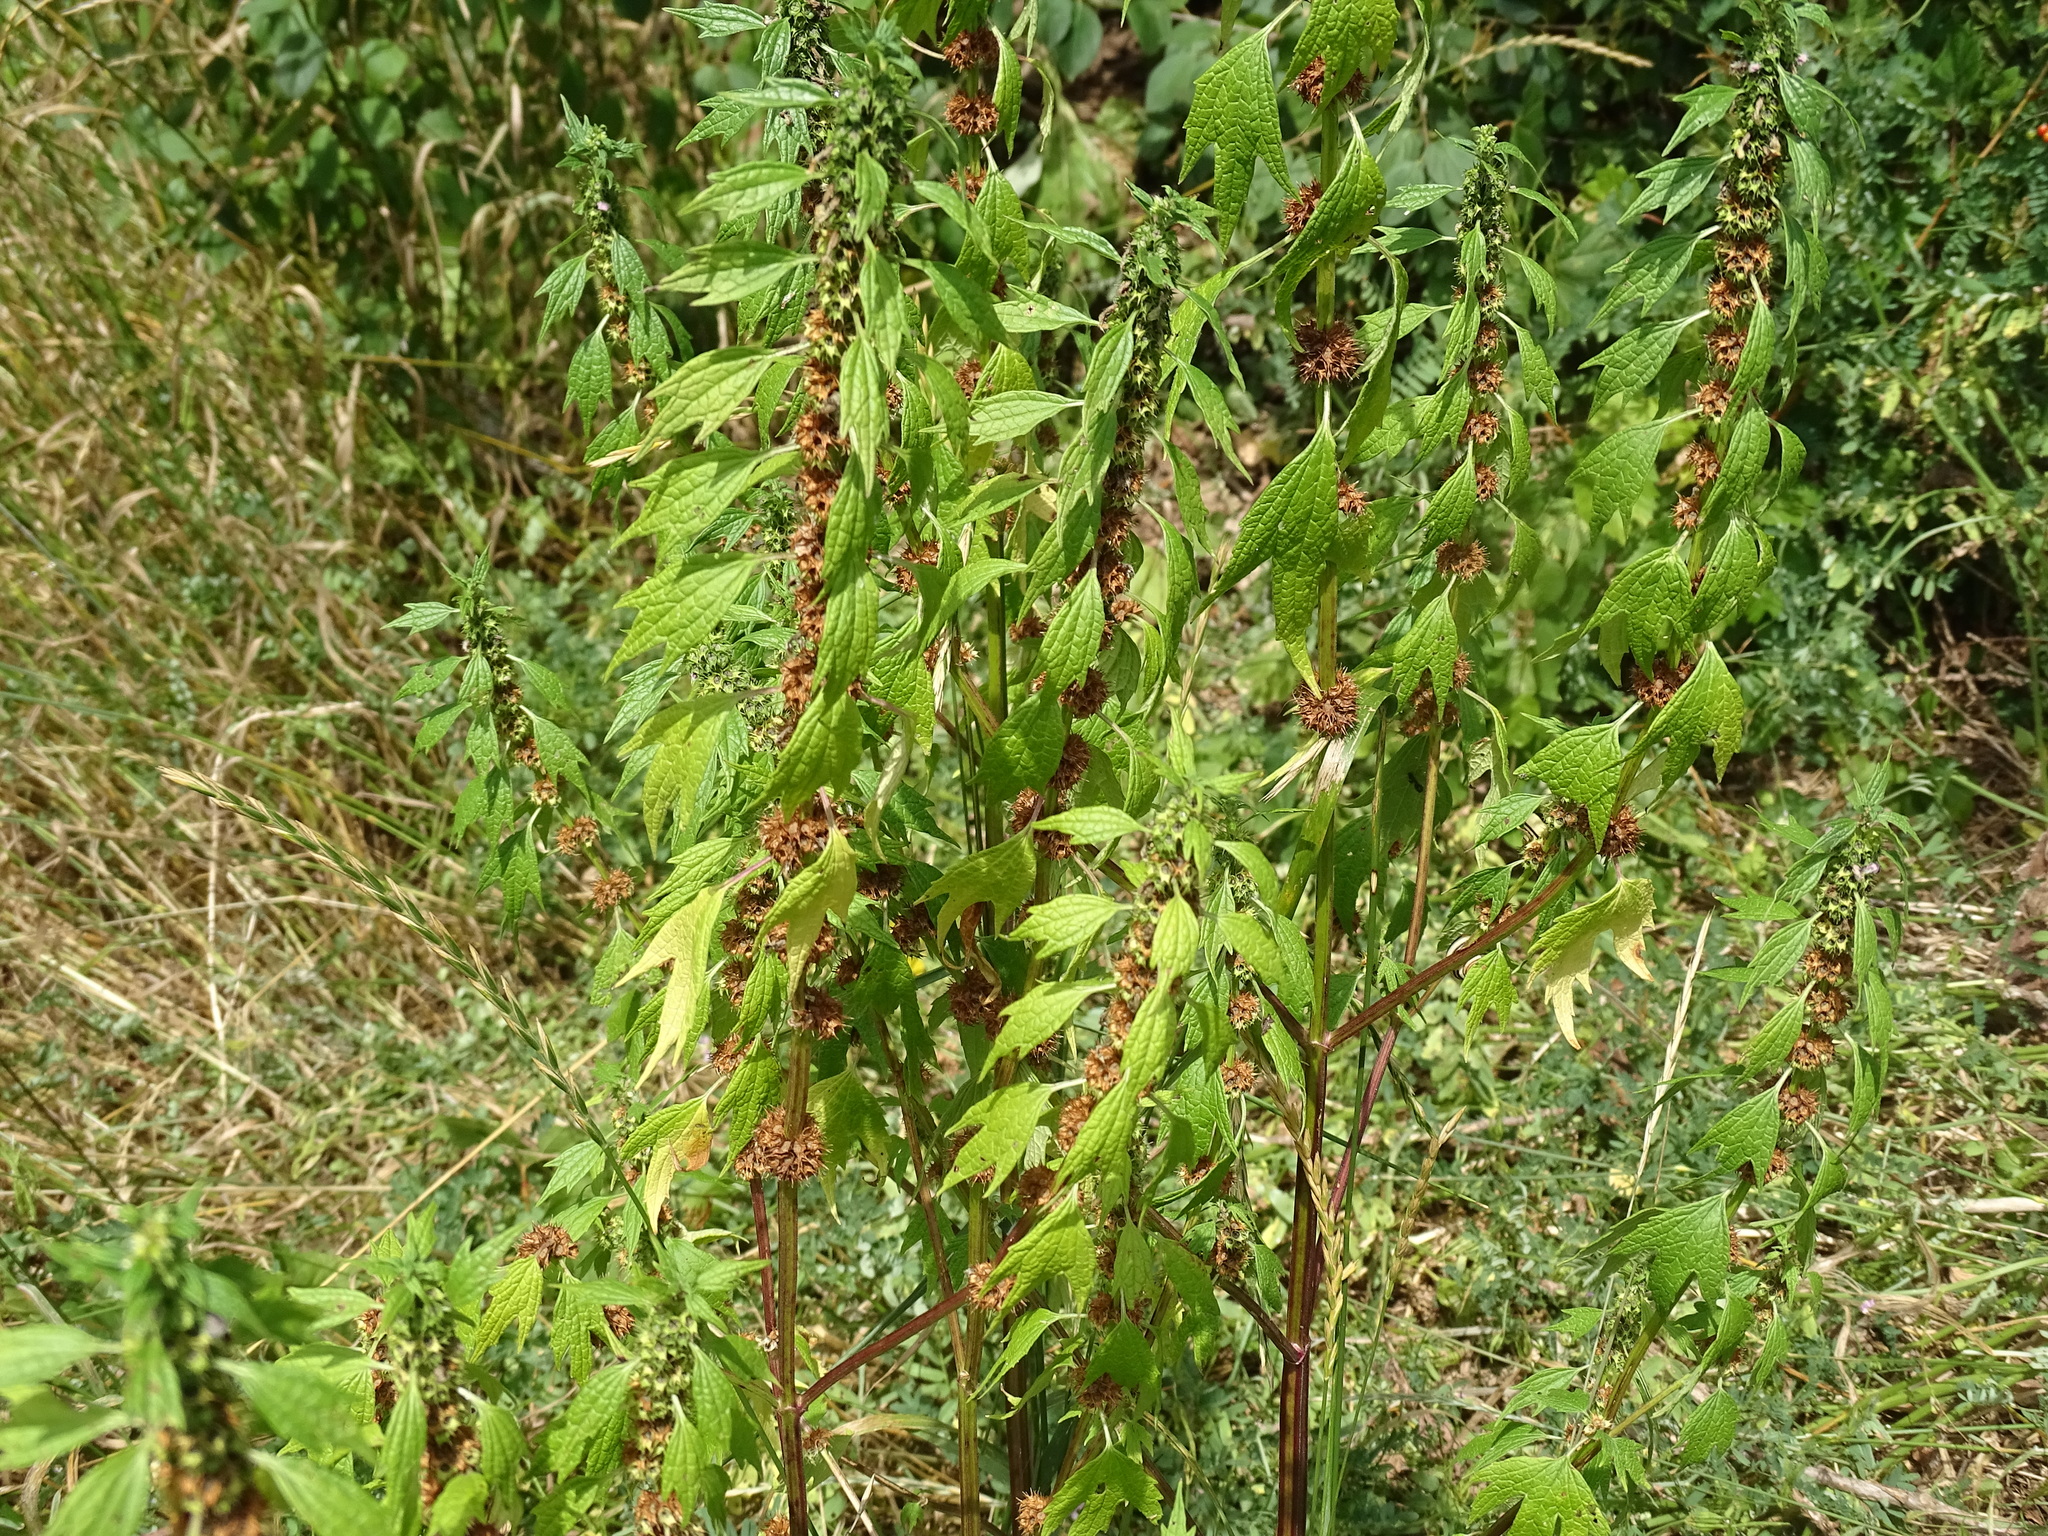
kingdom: Plantae
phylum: Tracheophyta
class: Magnoliopsida
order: Lamiales
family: Lamiaceae
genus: Leonurus
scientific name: Leonurus cardiaca
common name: Motherwort
